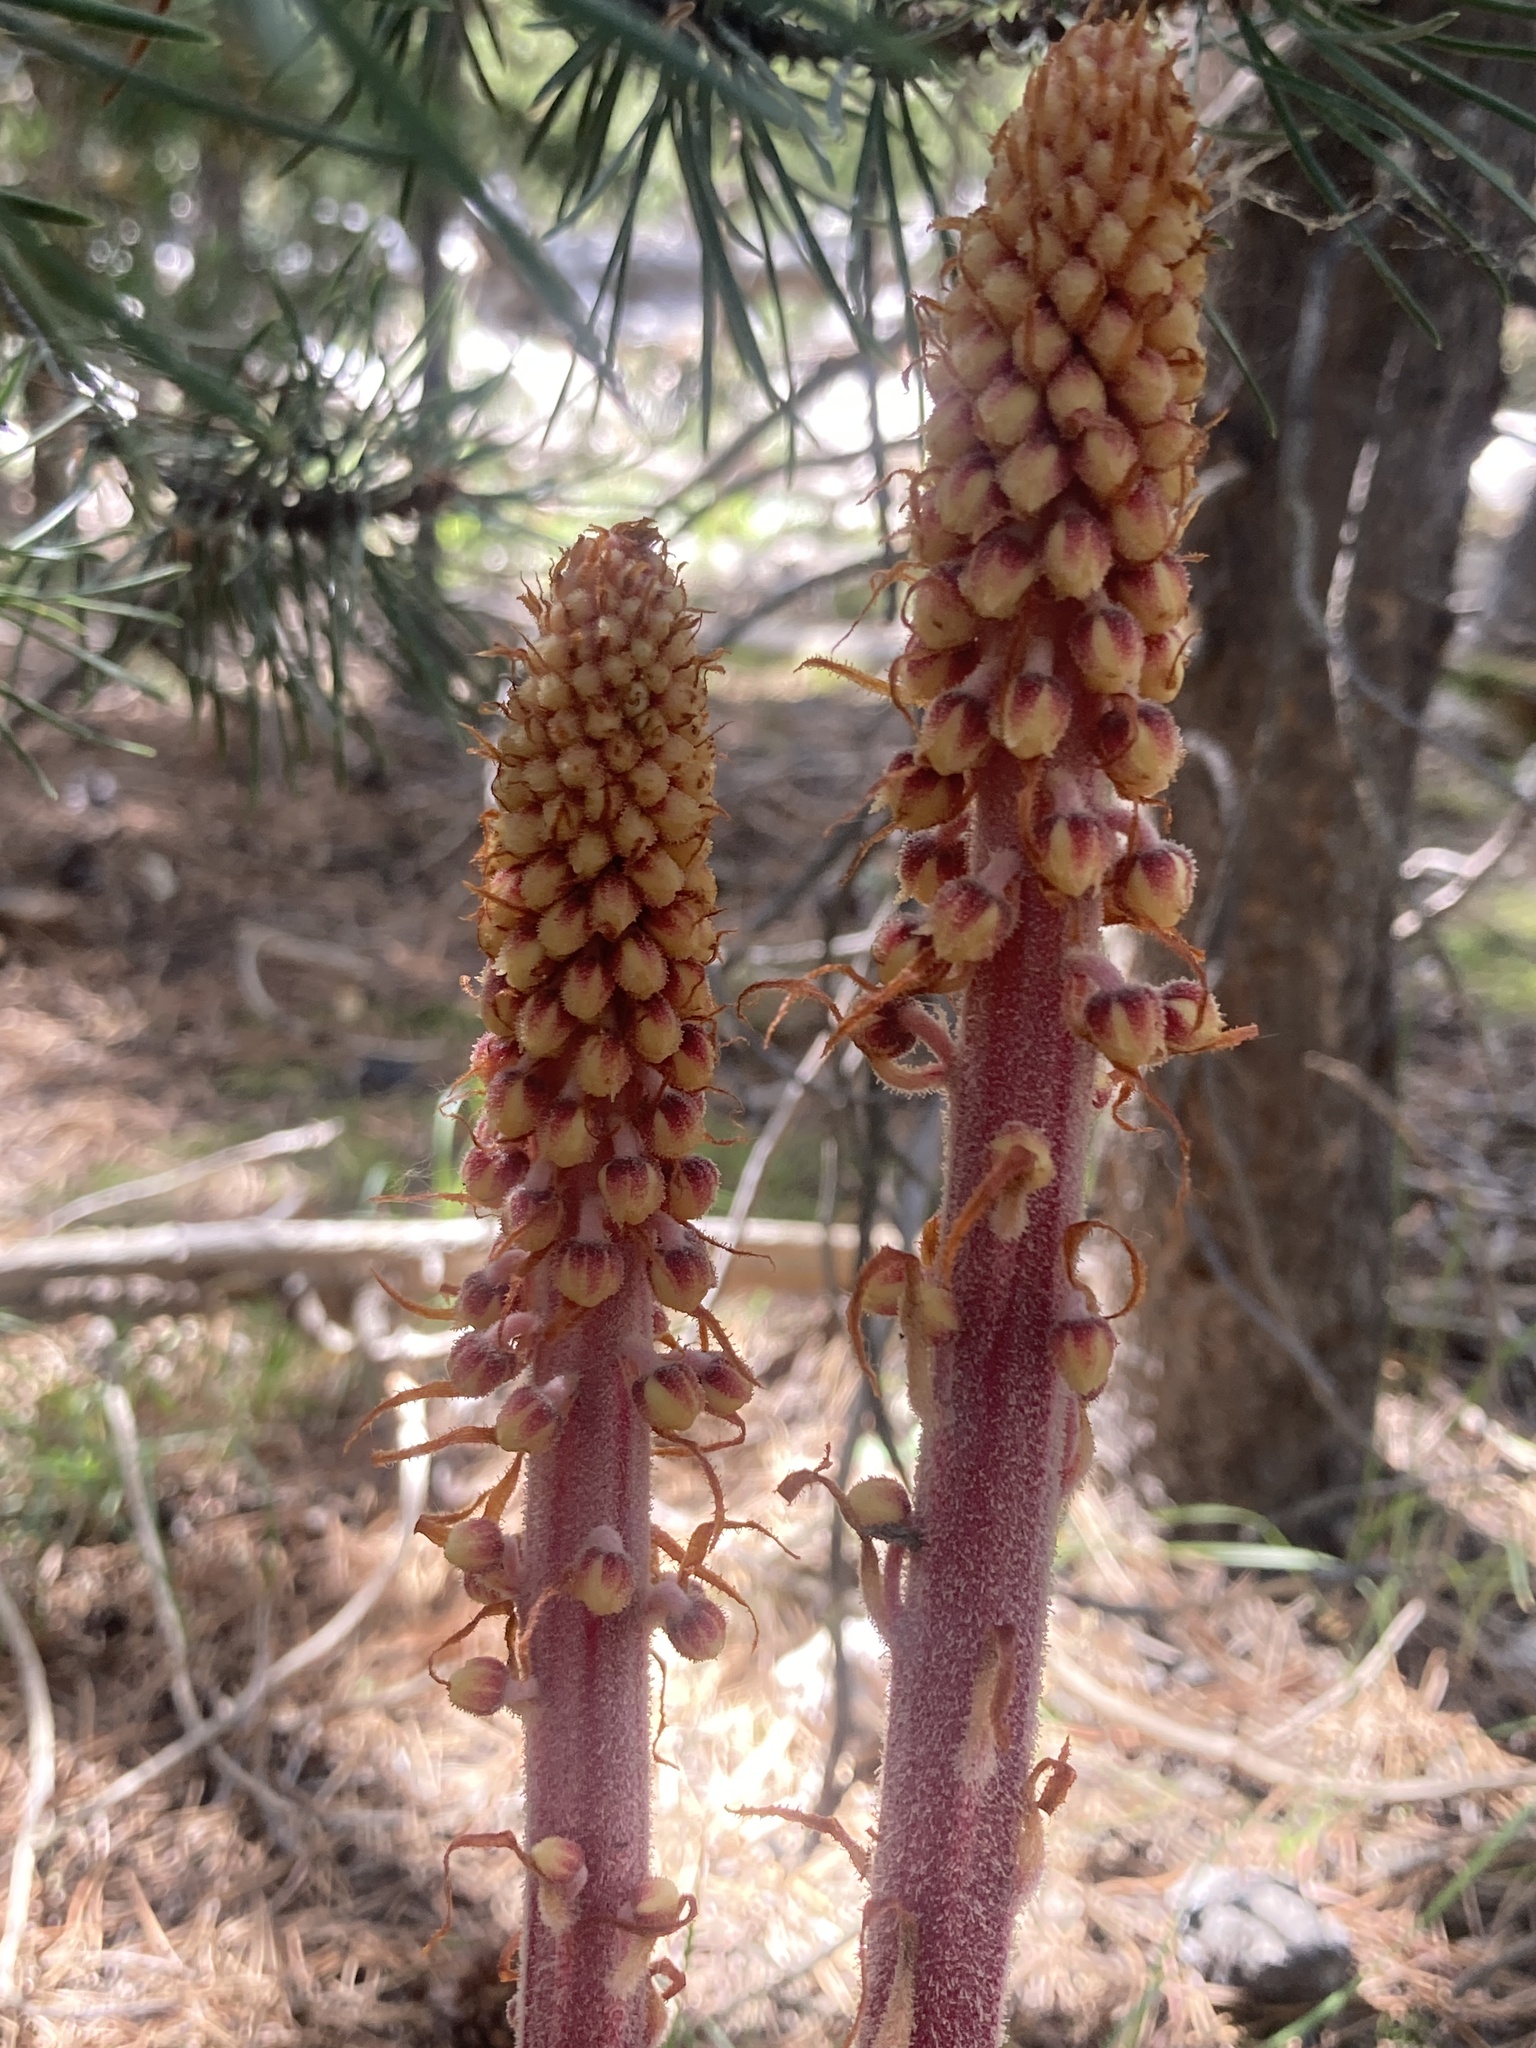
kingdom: Plantae
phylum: Tracheophyta
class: Magnoliopsida
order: Ericales
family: Ericaceae
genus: Pterospora
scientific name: Pterospora andromedea
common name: Giant bird's-nest
